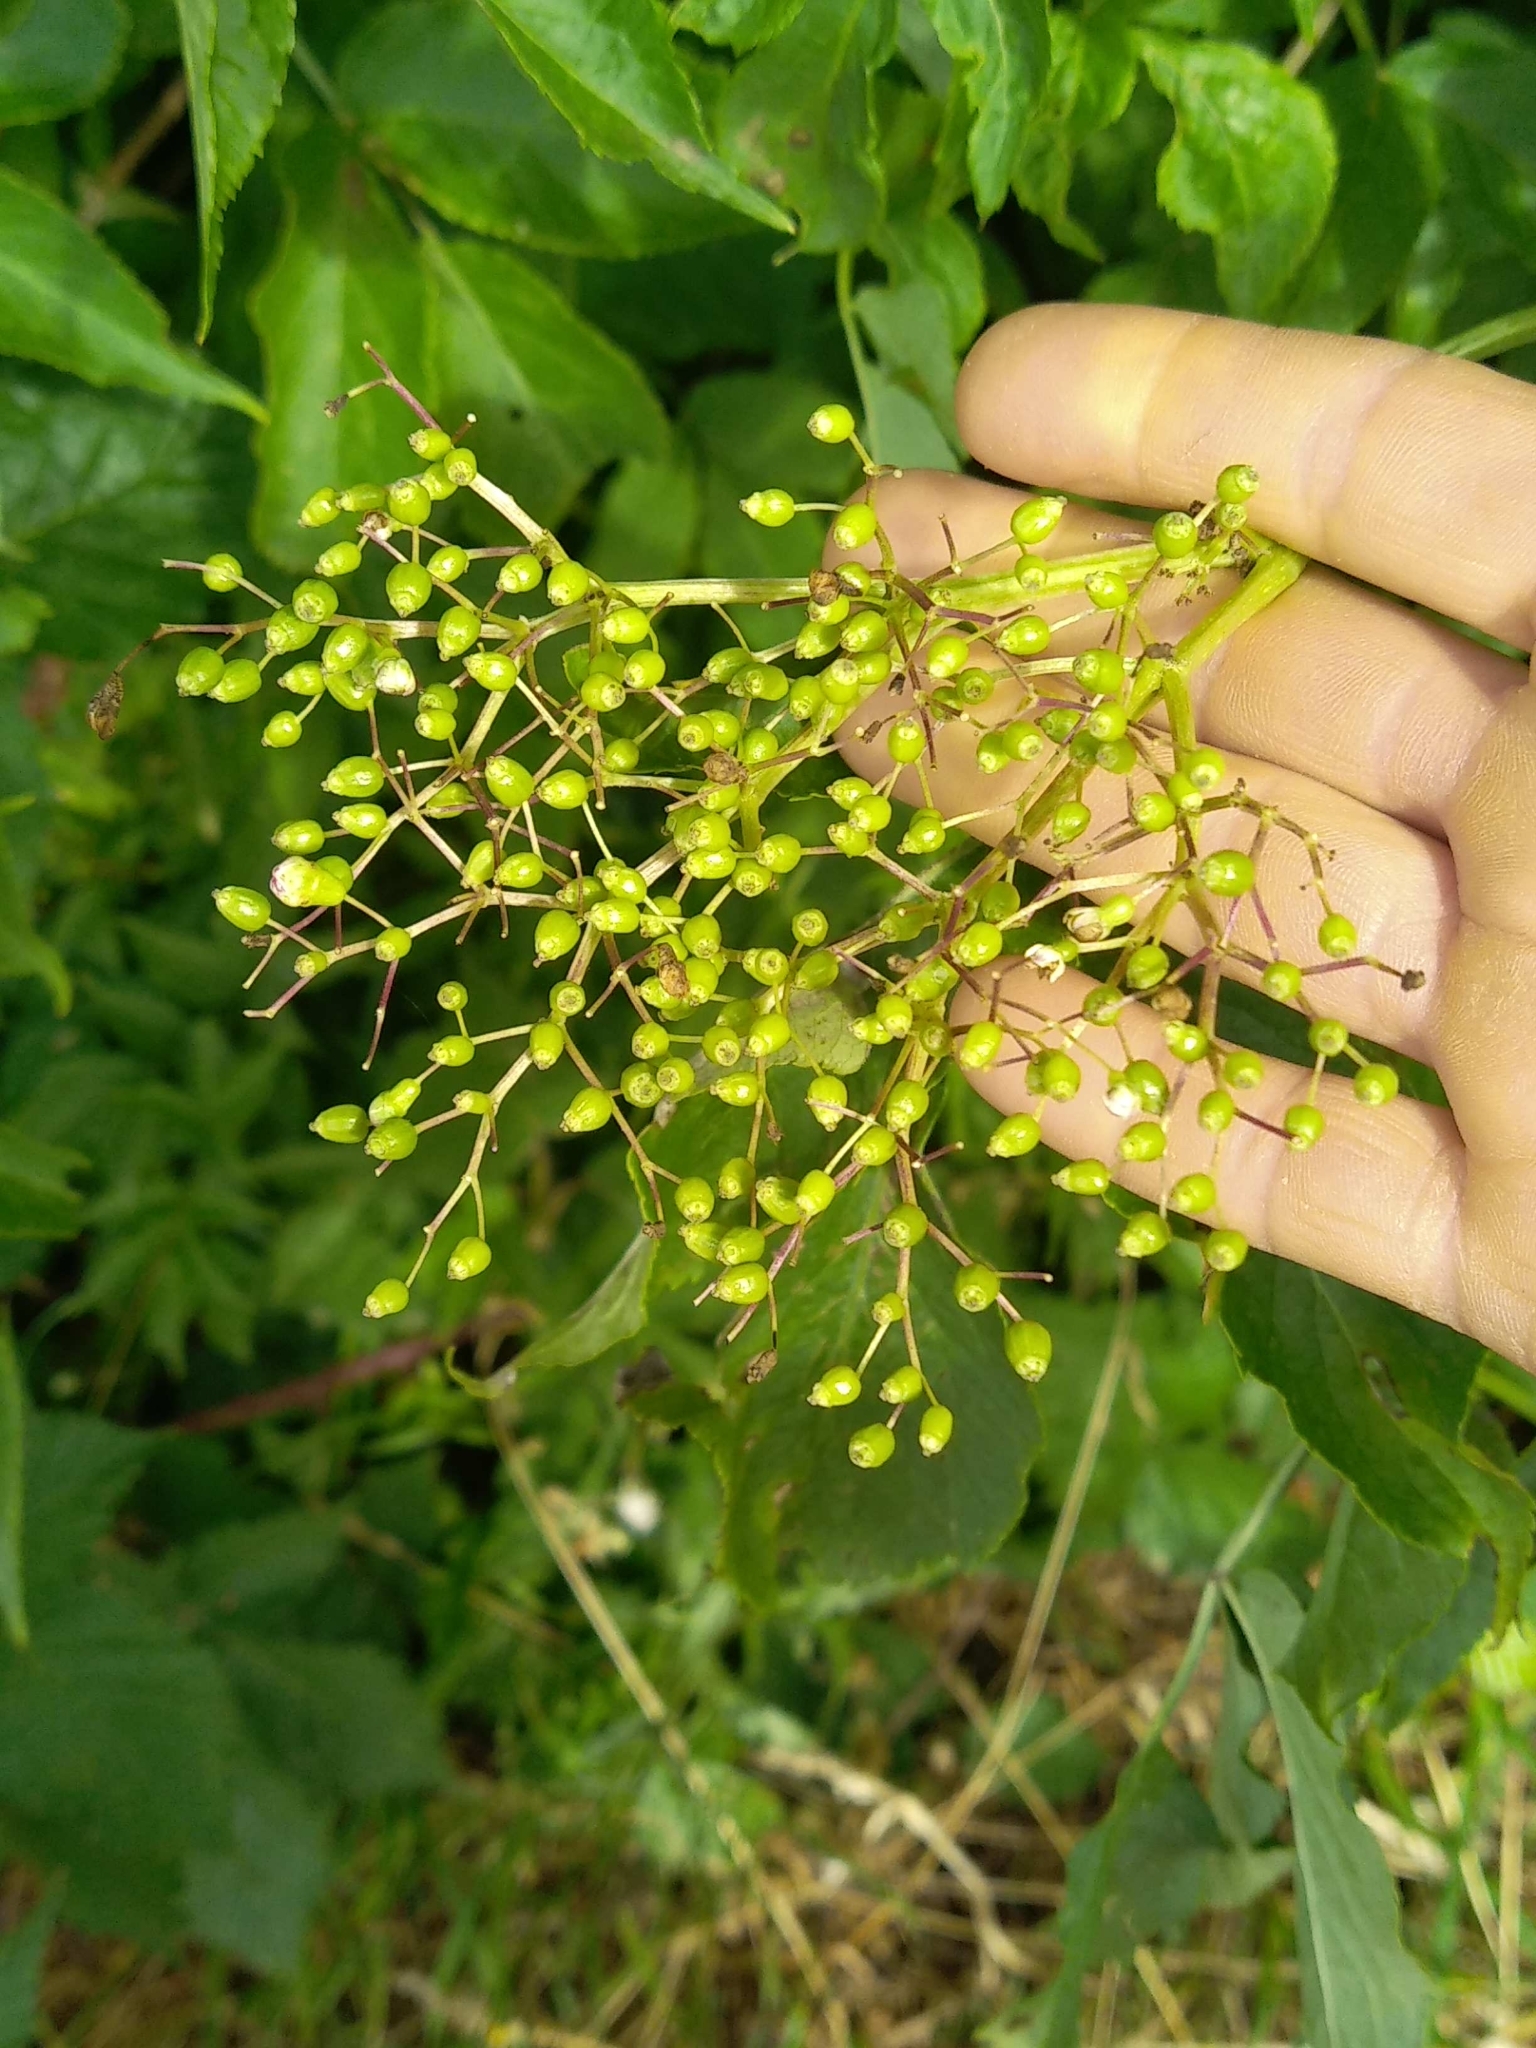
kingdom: Plantae
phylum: Tracheophyta
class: Magnoliopsida
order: Dipsacales
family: Viburnaceae
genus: Sambucus
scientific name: Sambucus nigra
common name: Elder
